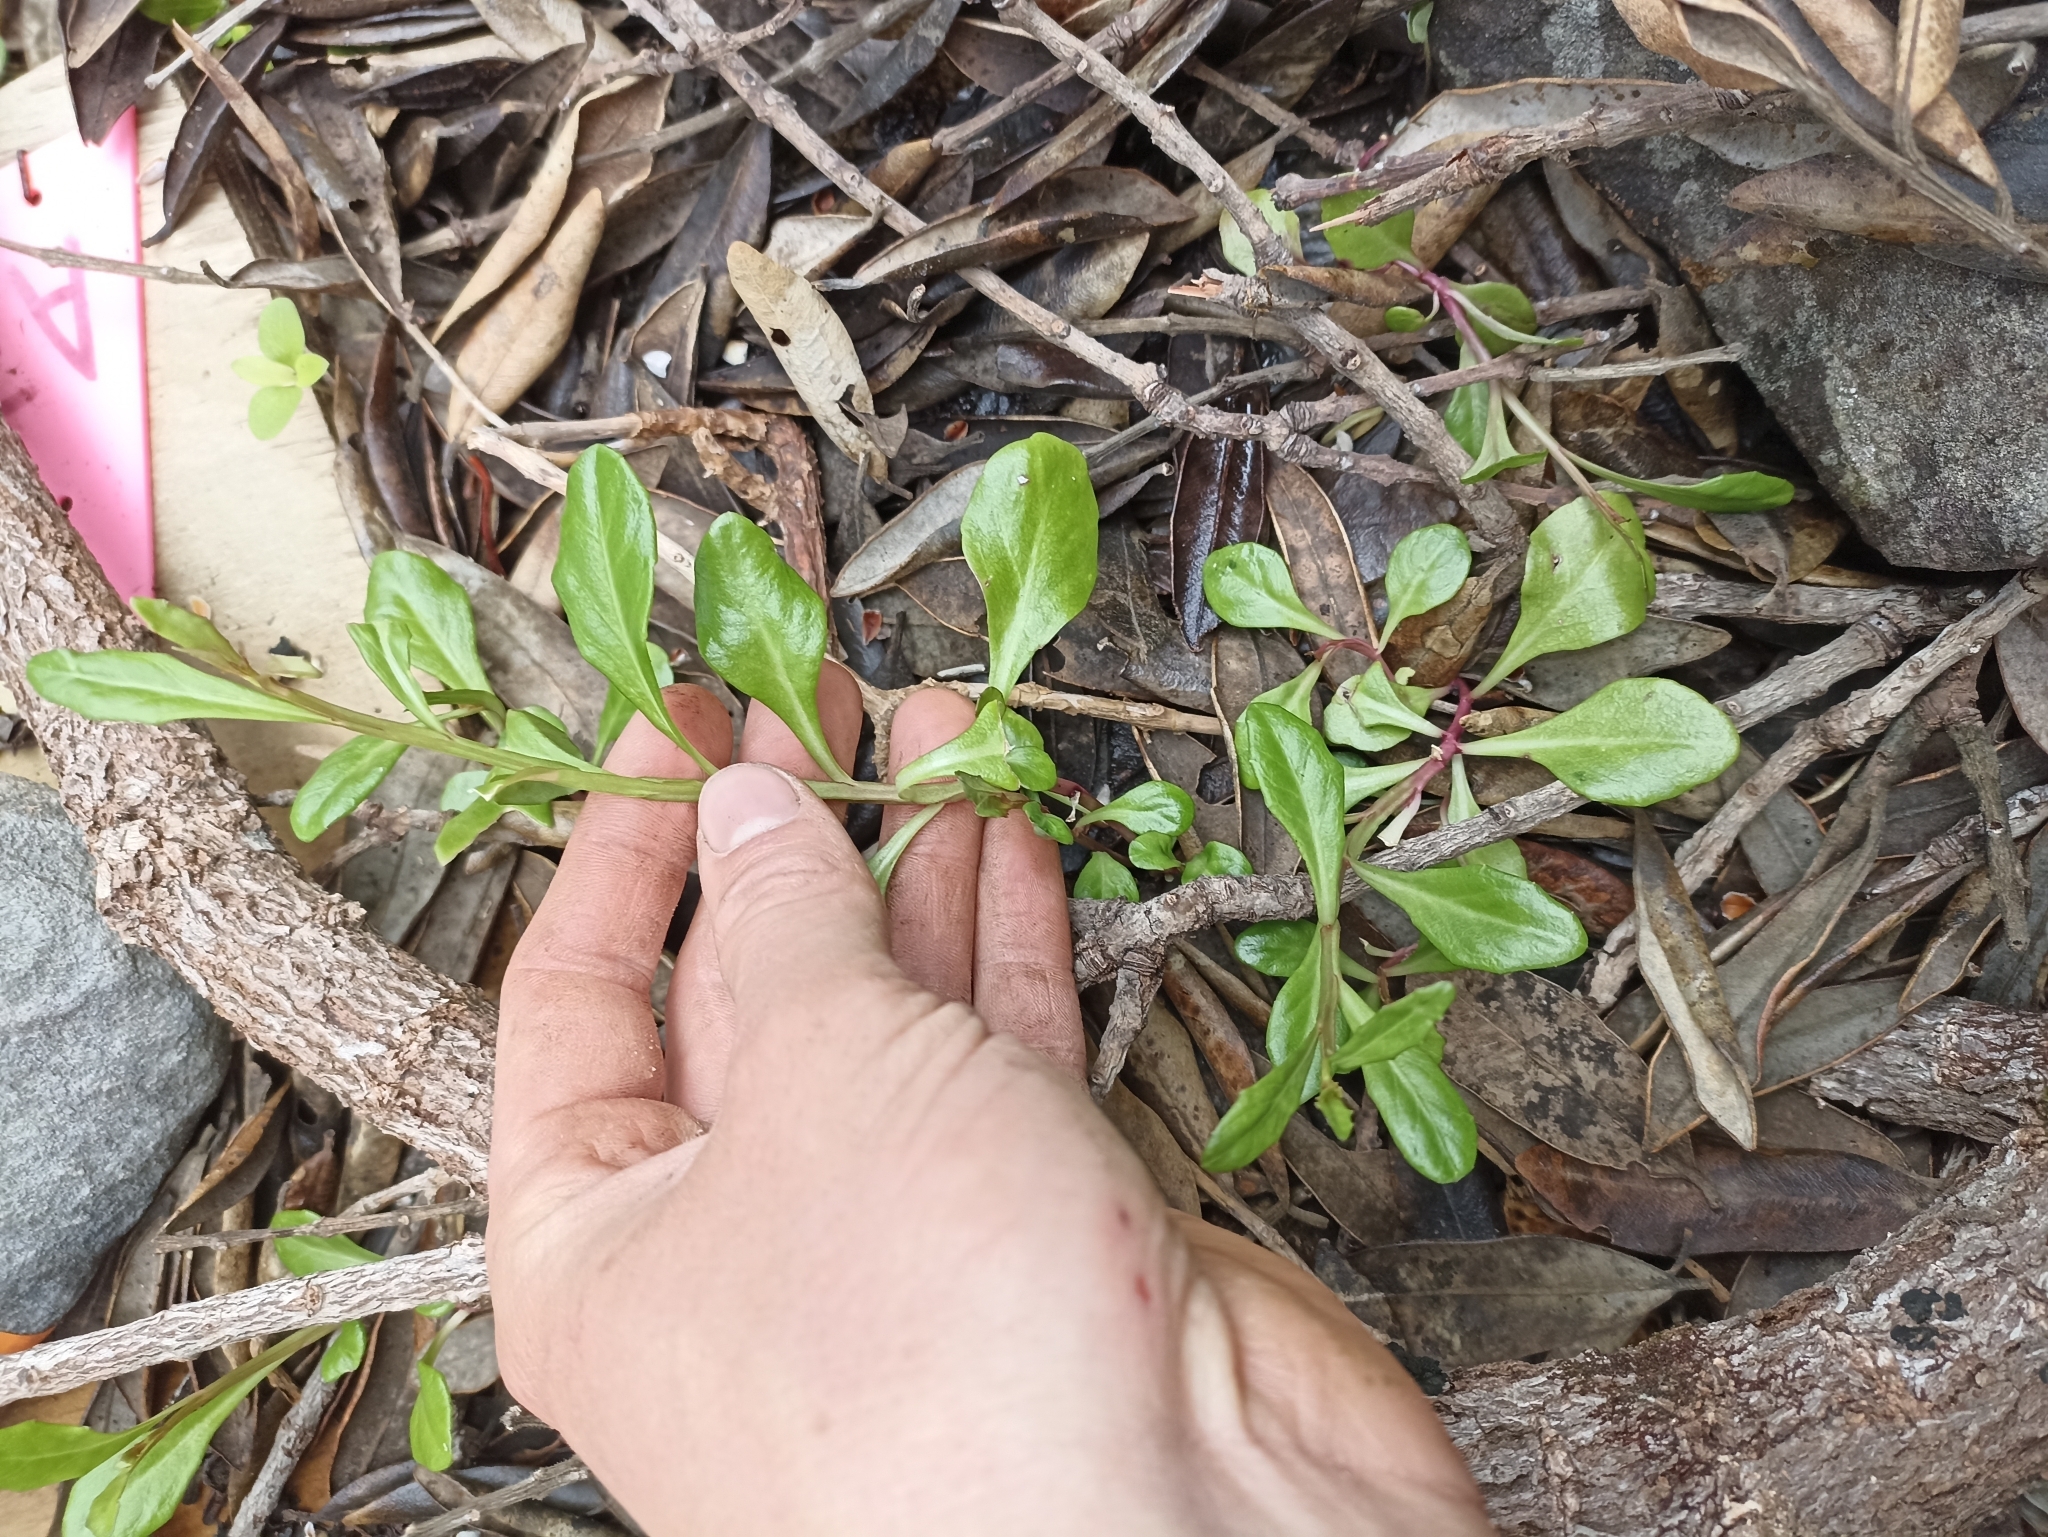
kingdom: Plantae
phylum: Tracheophyta
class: Magnoliopsida
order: Asterales
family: Campanulaceae
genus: Lobelia
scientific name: Lobelia anceps
